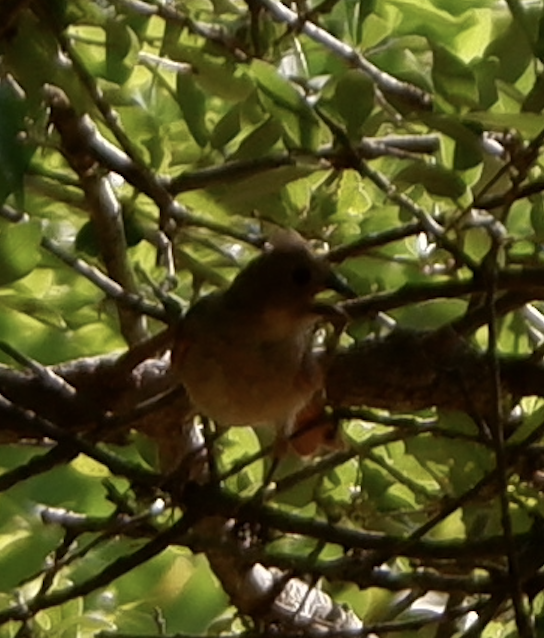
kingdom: Animalia
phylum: Chordata
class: Aves
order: Passeriformes
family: Cardinalidae
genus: Cardinalis
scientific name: Cardinalis cardinalis
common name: Northern cardinal
